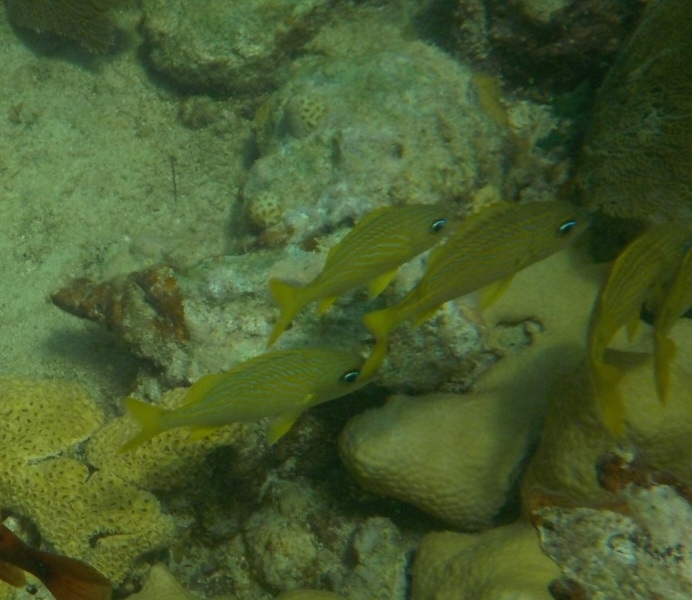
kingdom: Animalia
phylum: Chordata
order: Perciformes
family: Haemulidae
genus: Haemulon
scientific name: Haemulon flavolineatum
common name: French grunt
